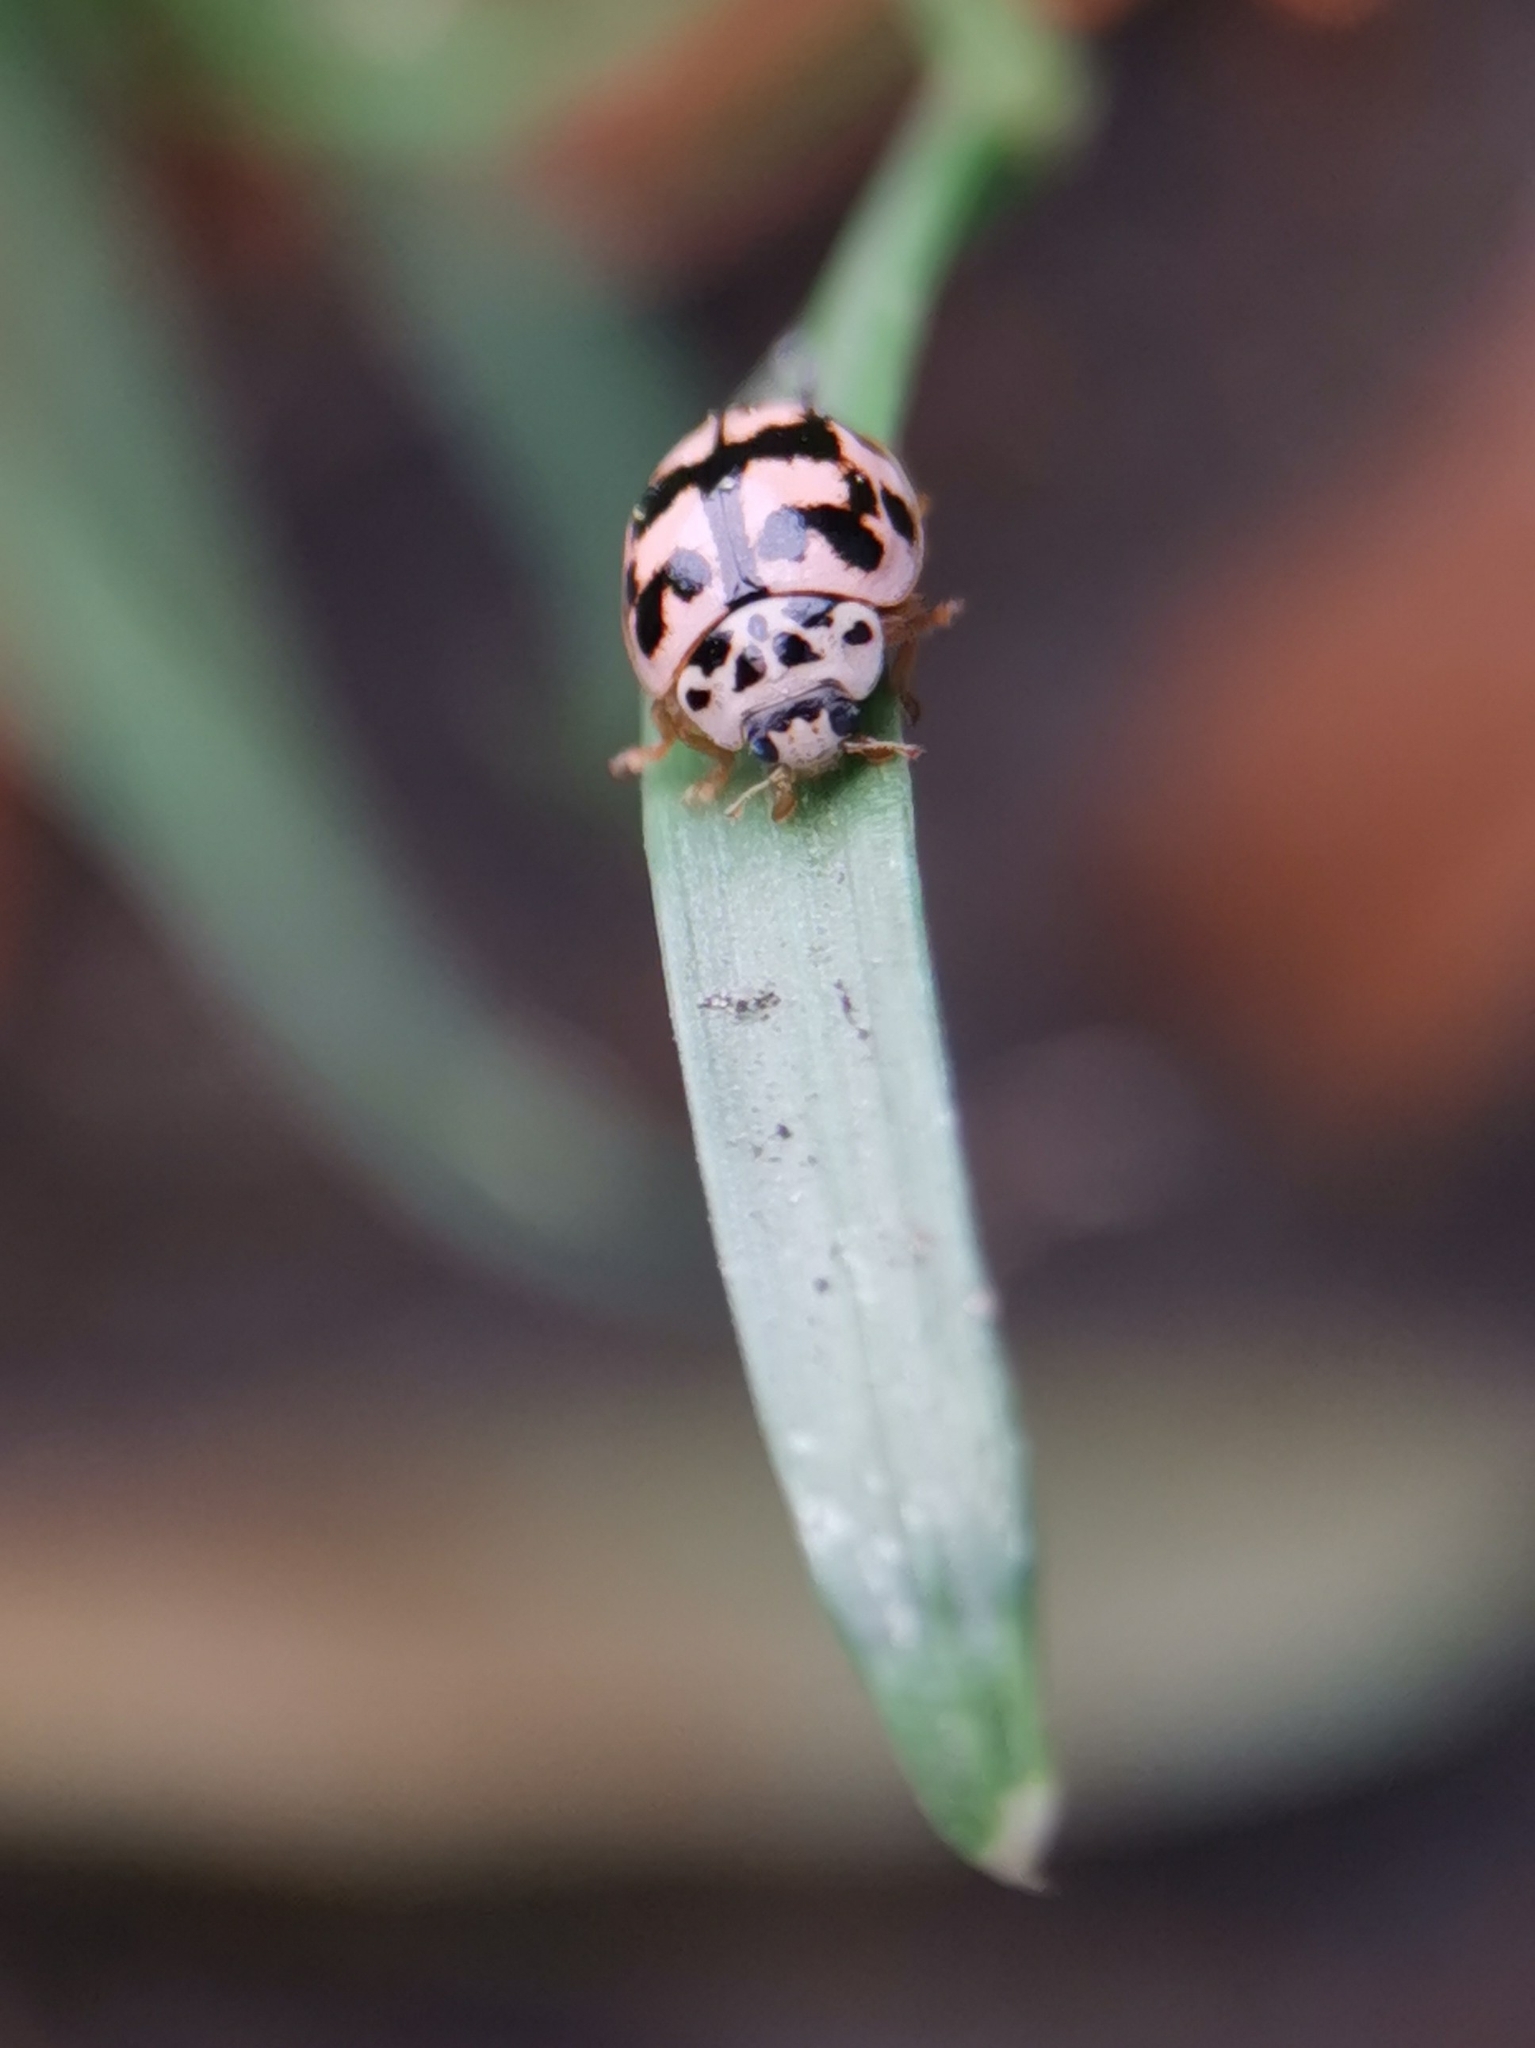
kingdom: Animalia
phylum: Arthropoda
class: Insecta
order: Coleoptera
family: Coccinellidae
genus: Oenopia
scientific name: Oenopia conglobata
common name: Ladybird beetle
